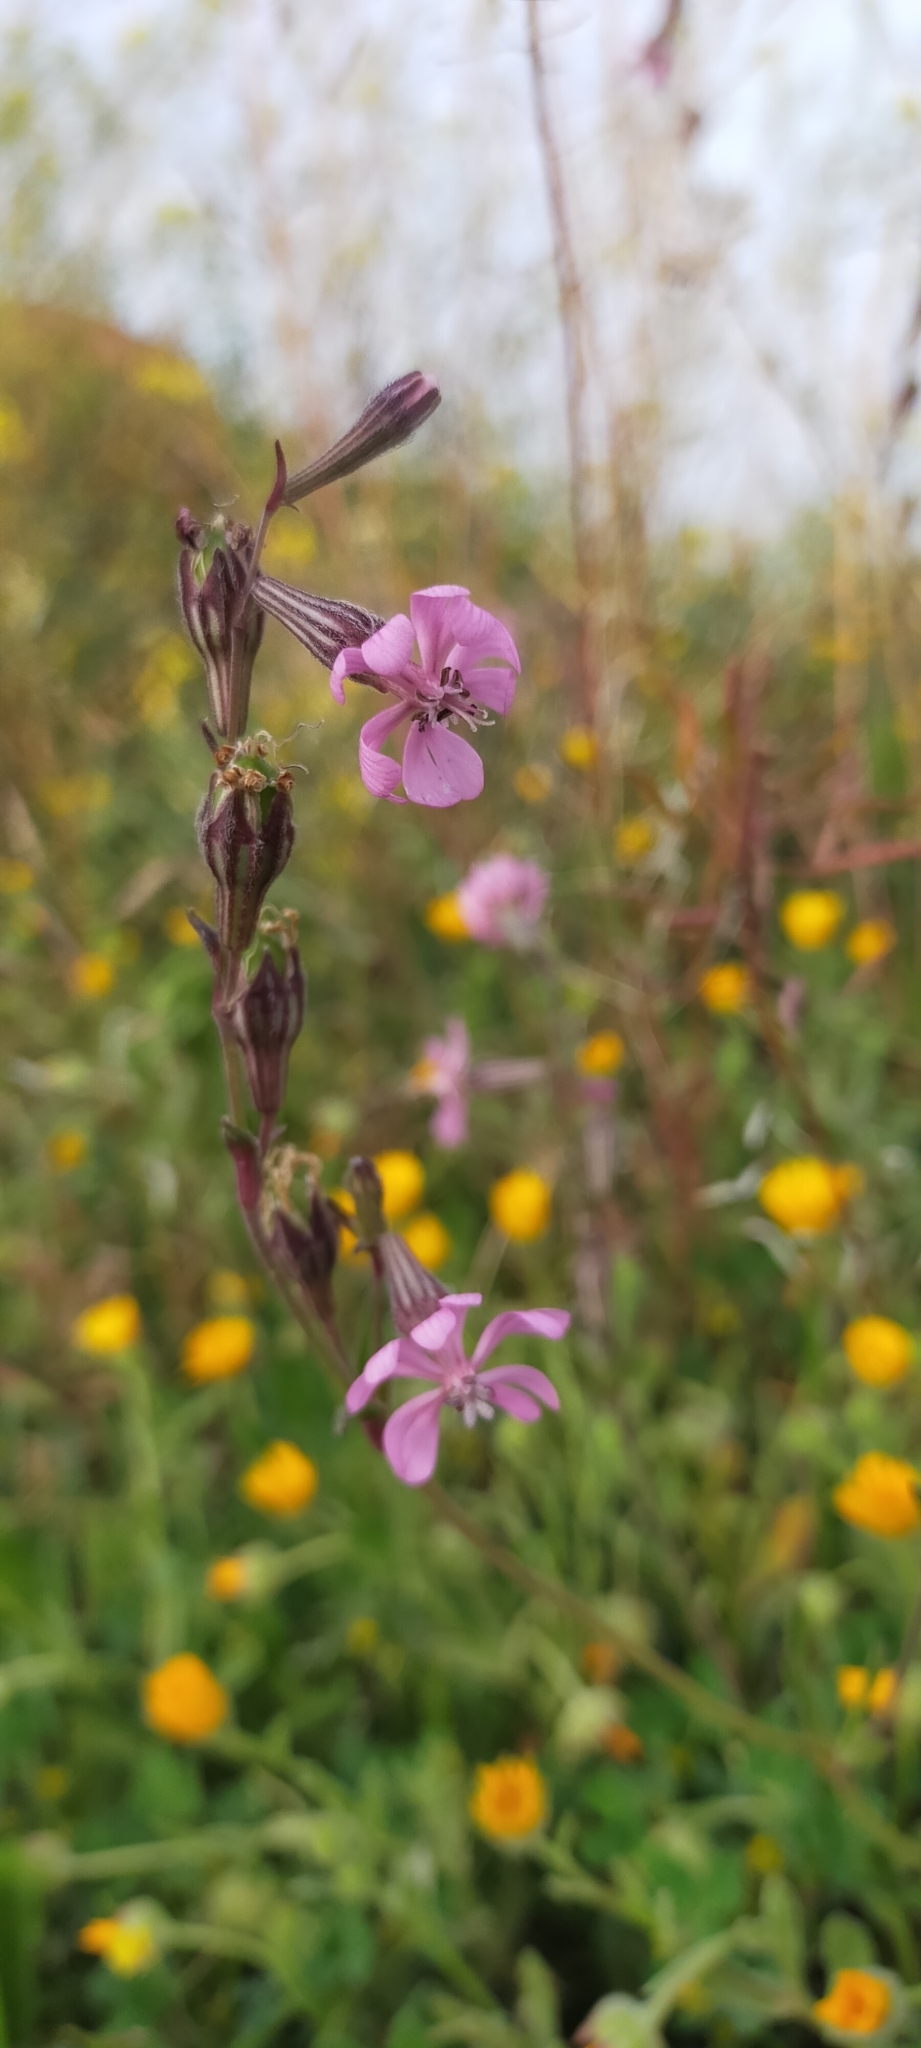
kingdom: Plantae
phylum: Tracheophyta
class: Magnoliopsida
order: Caryophyllales
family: Caryophyllaceae
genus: Silene
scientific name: Silene colorata
